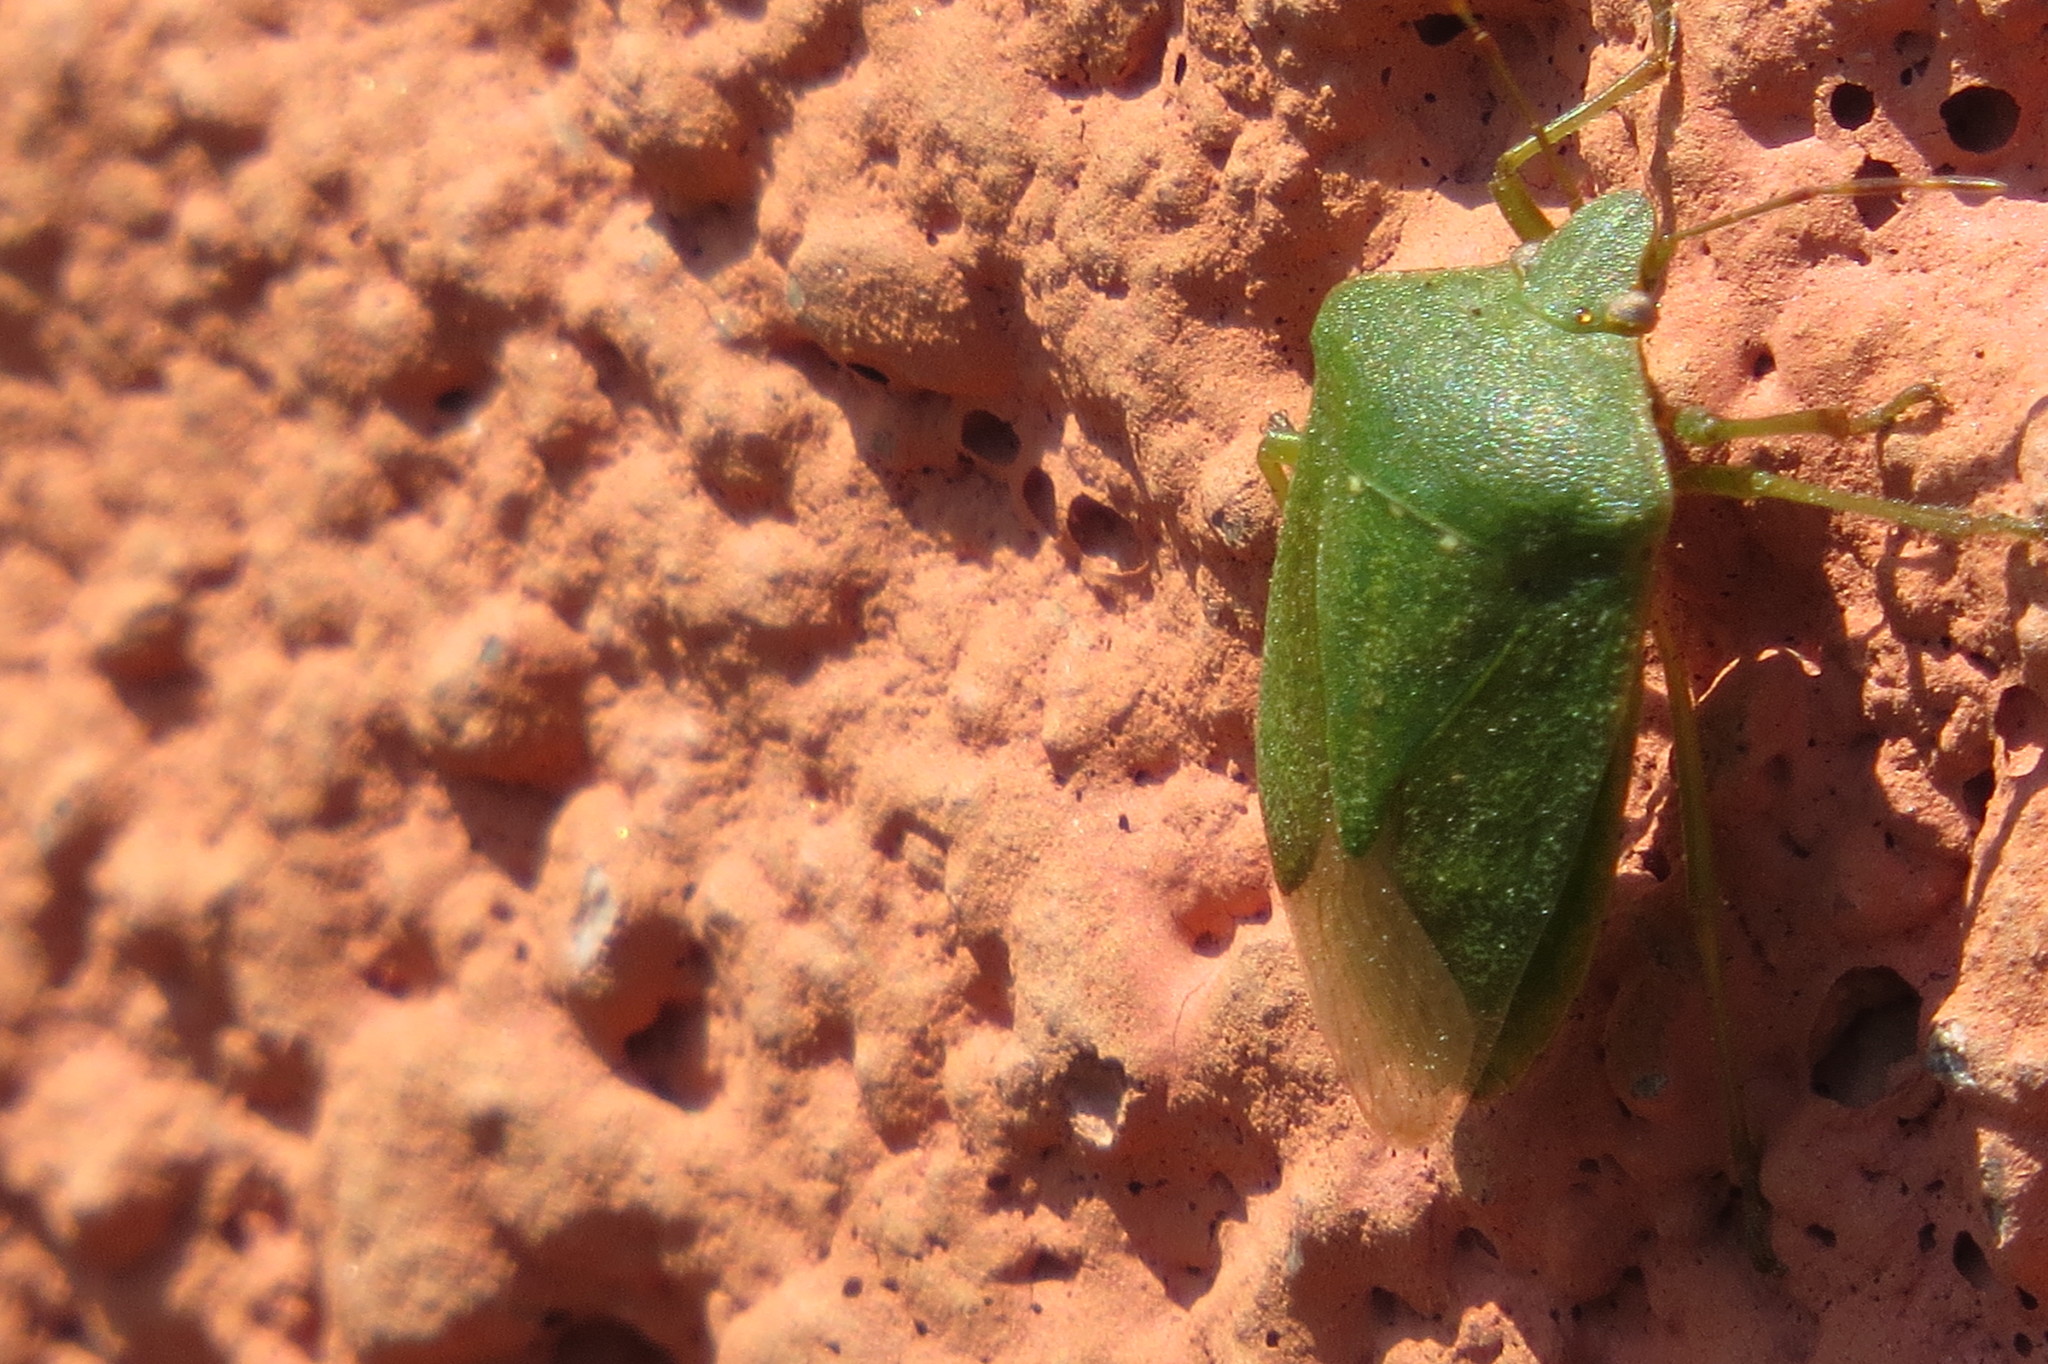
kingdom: Animalia
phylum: Arthropoda
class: Insecta
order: Hemiptera
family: Pentatomidae
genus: Nezara
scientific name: Nezara viridula
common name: Southern green stink bug
